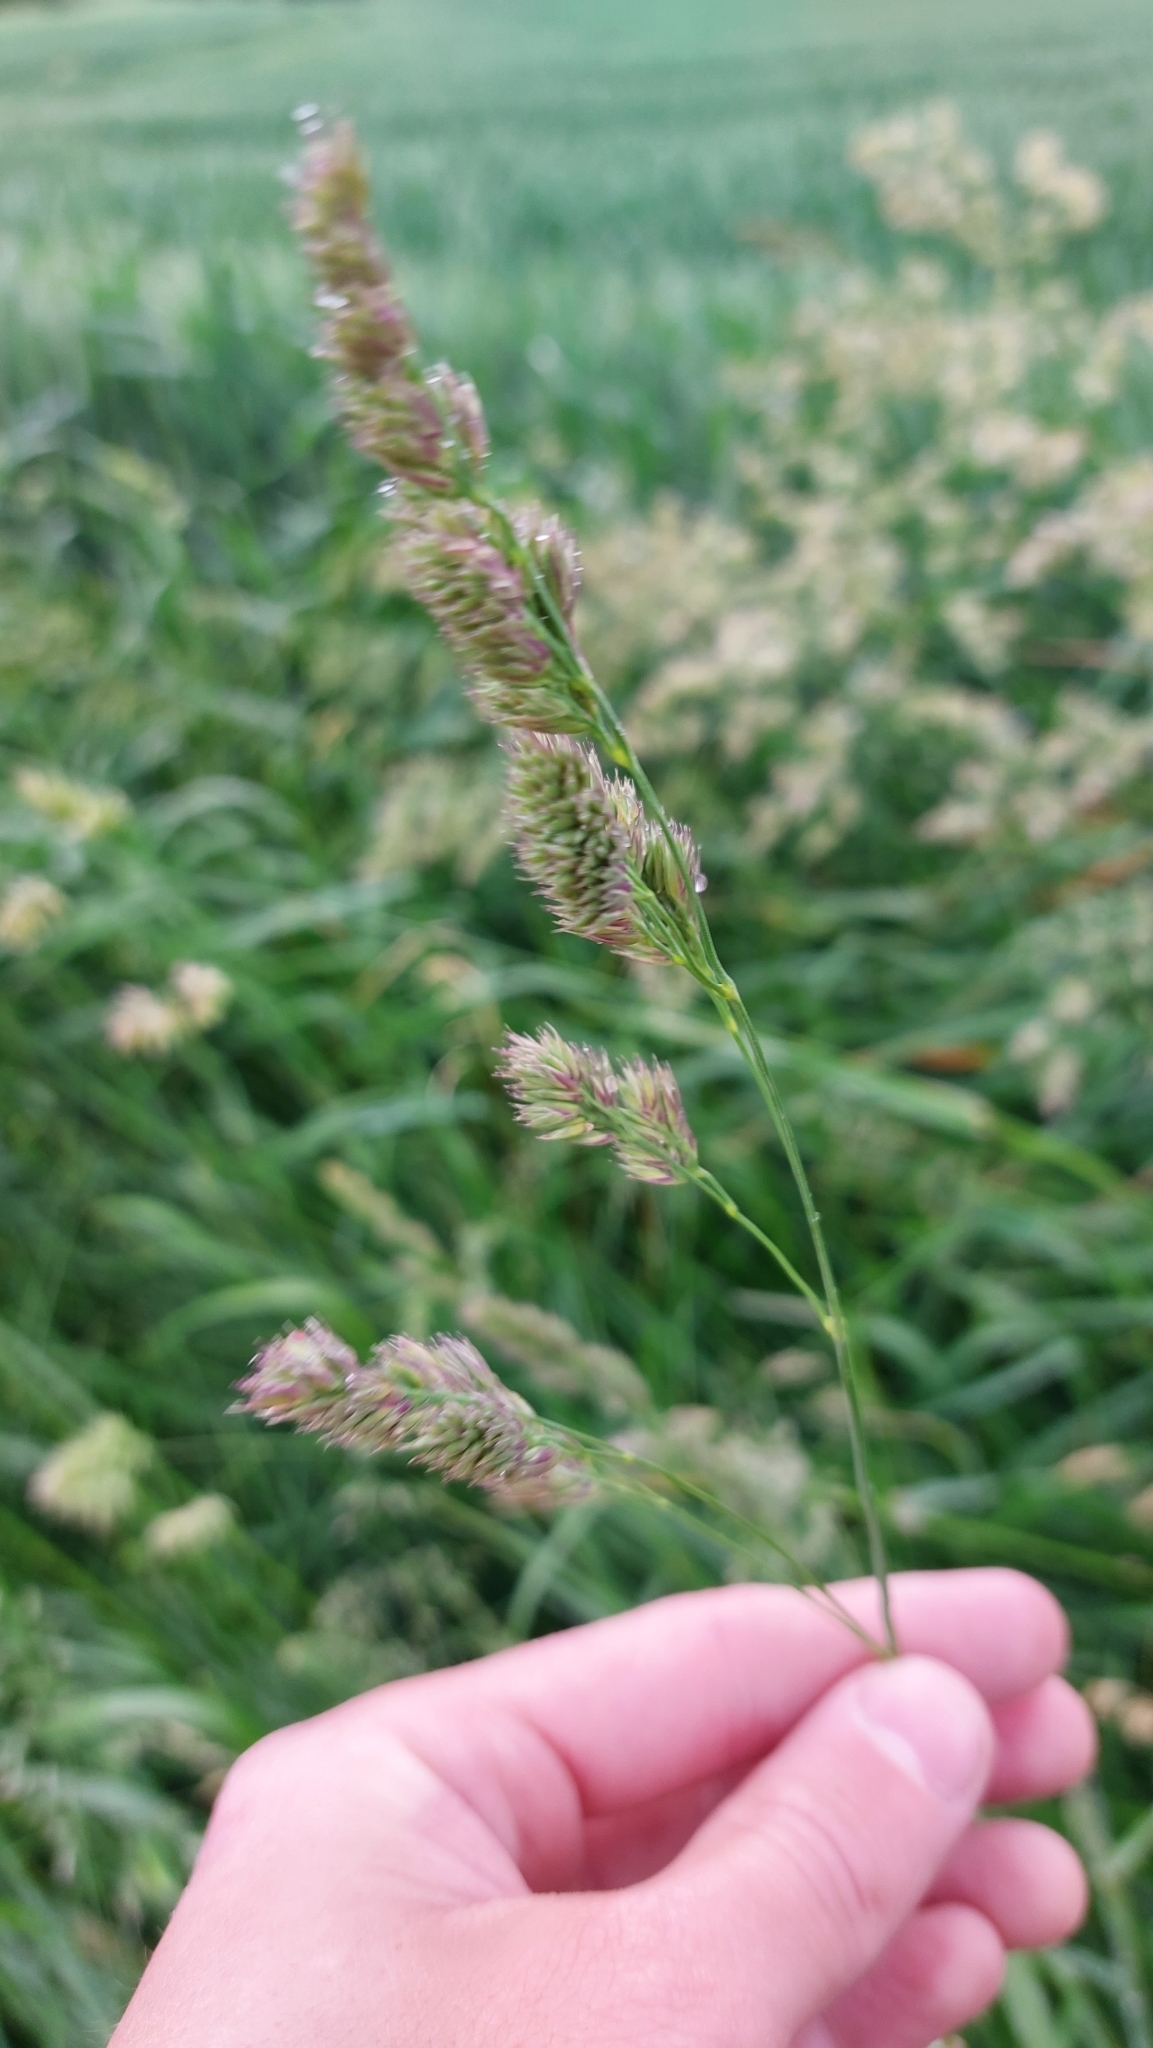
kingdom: Plantae
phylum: Tracheophyta
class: Liliopsida
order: Poales
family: Poaceae
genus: Dactylis
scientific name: Dactylis glomerata
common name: Orchardgrass
